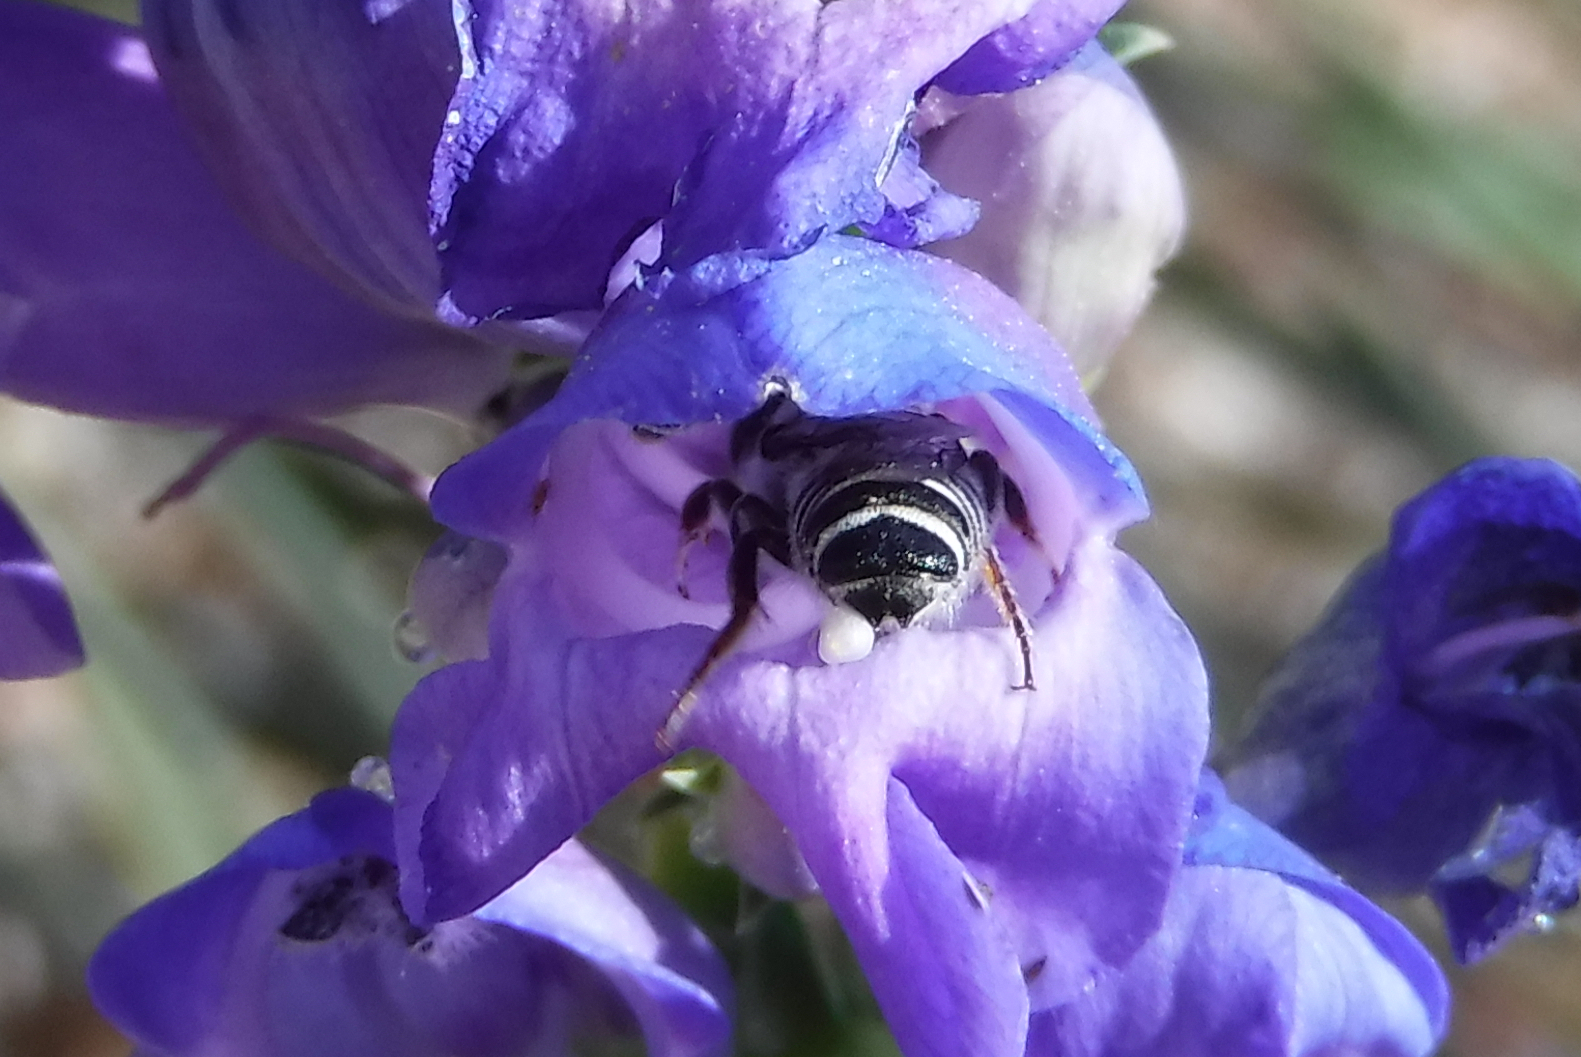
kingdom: Animalia
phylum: Arthropoda
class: Insecta
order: Hymenoptera
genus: Chelostomoides
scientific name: Chelostomoides
